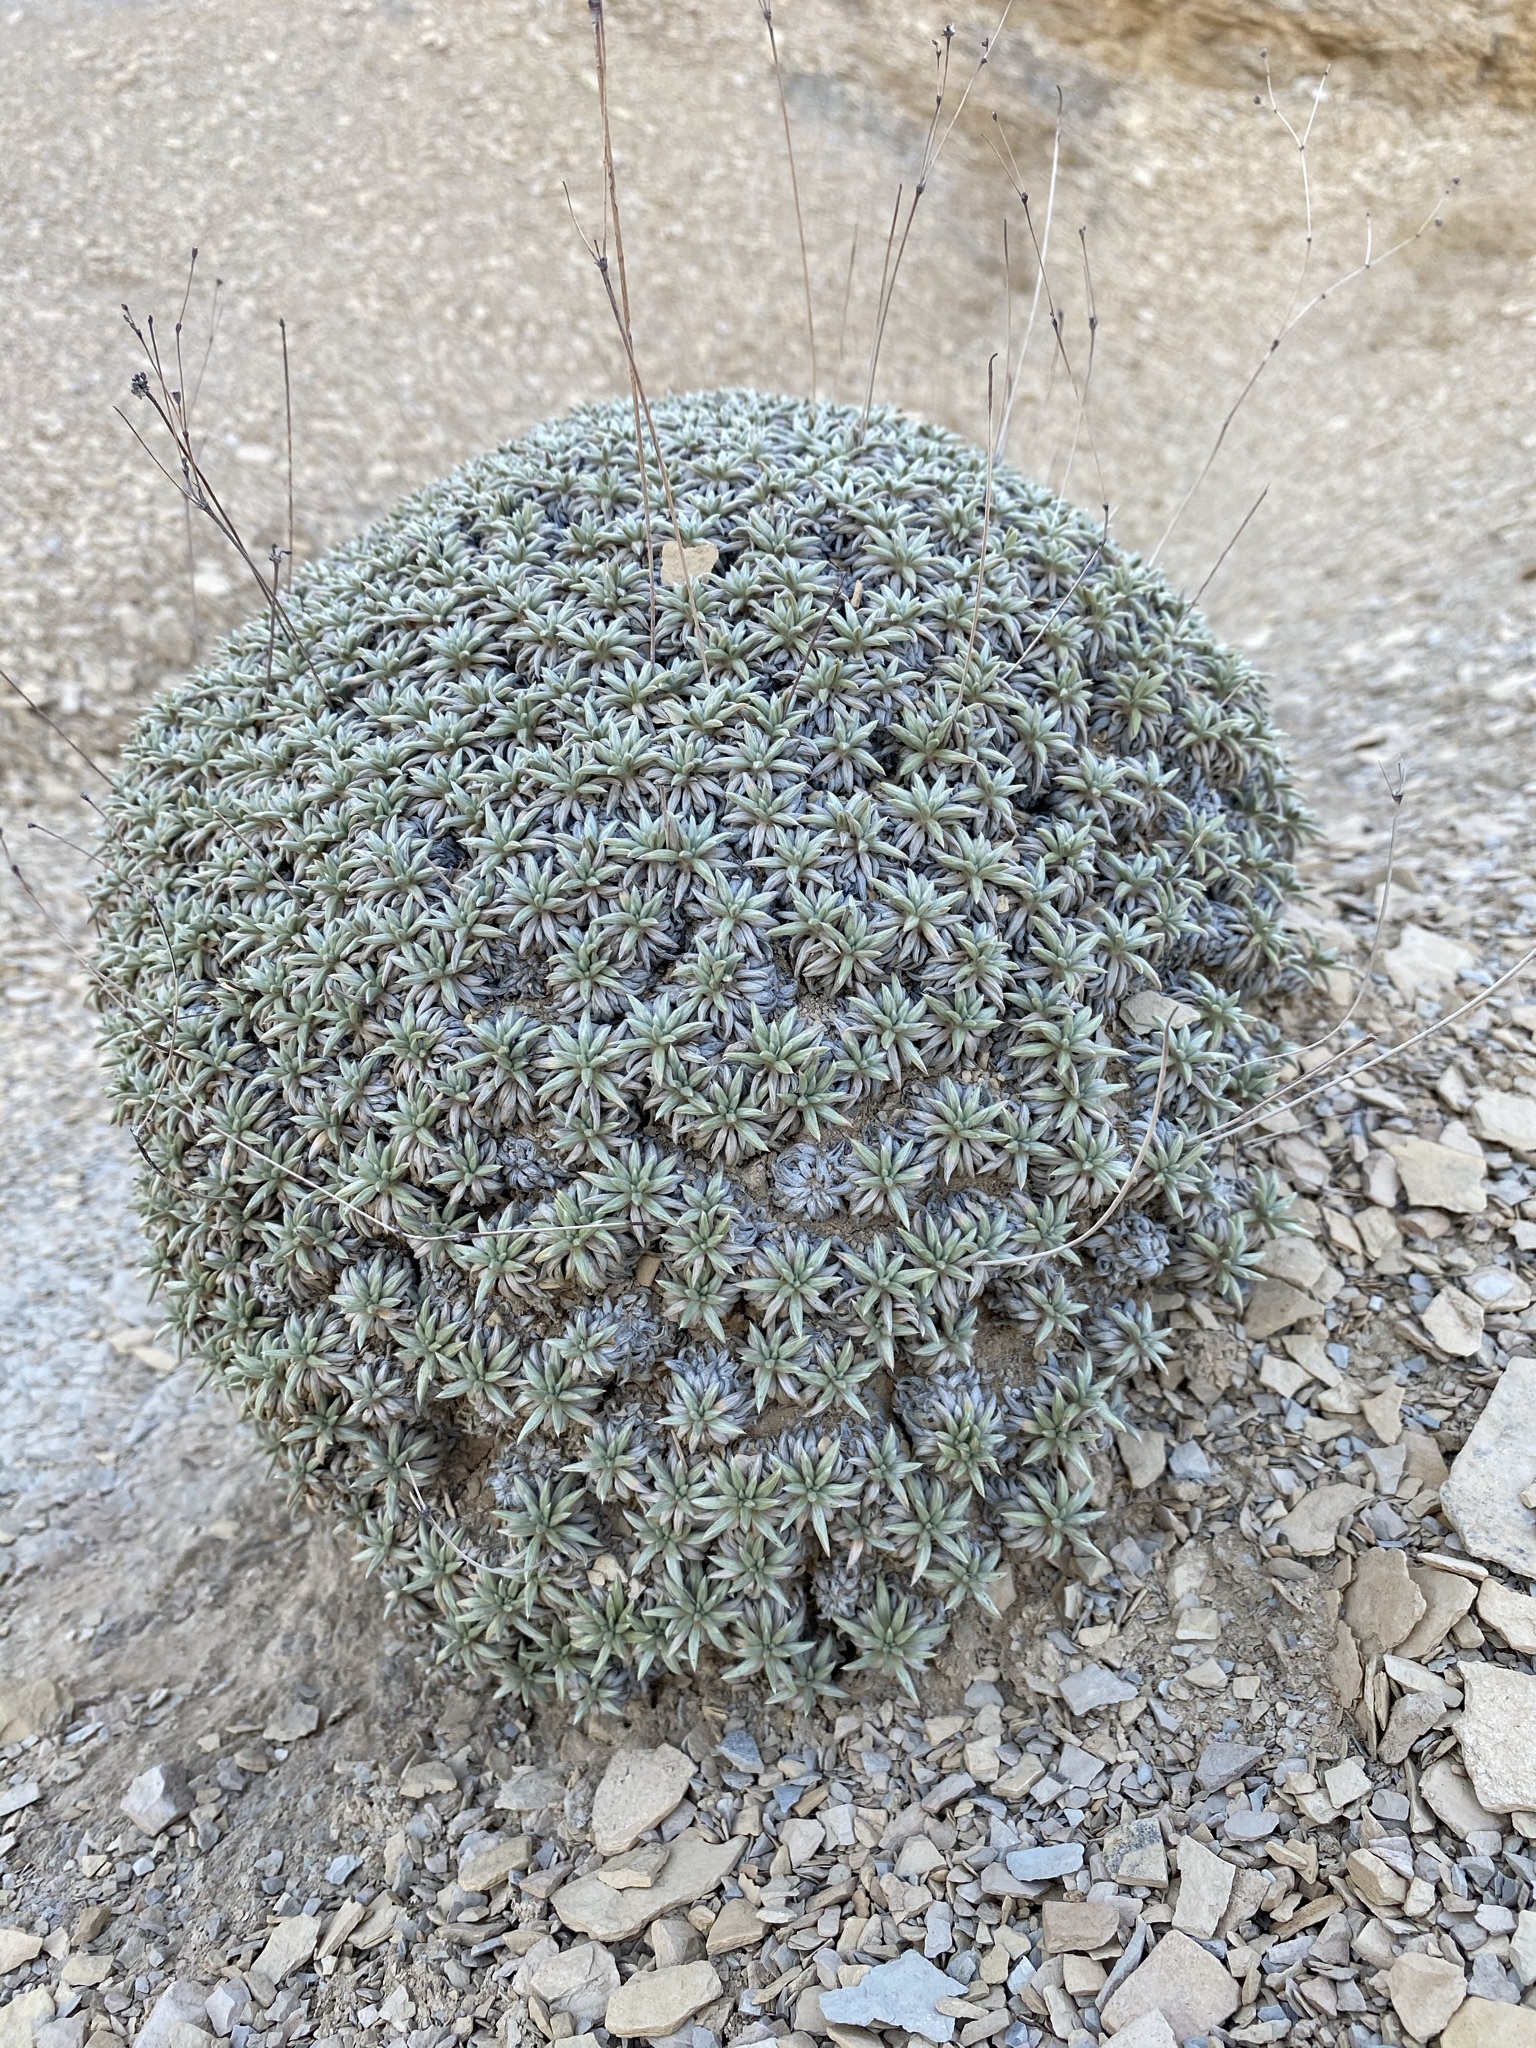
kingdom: Plantae
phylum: Tracheophyta
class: Magnoliopsida
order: Caryophyllales
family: Polygonaceae
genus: Eriogonum
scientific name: Eriogonum havardii
